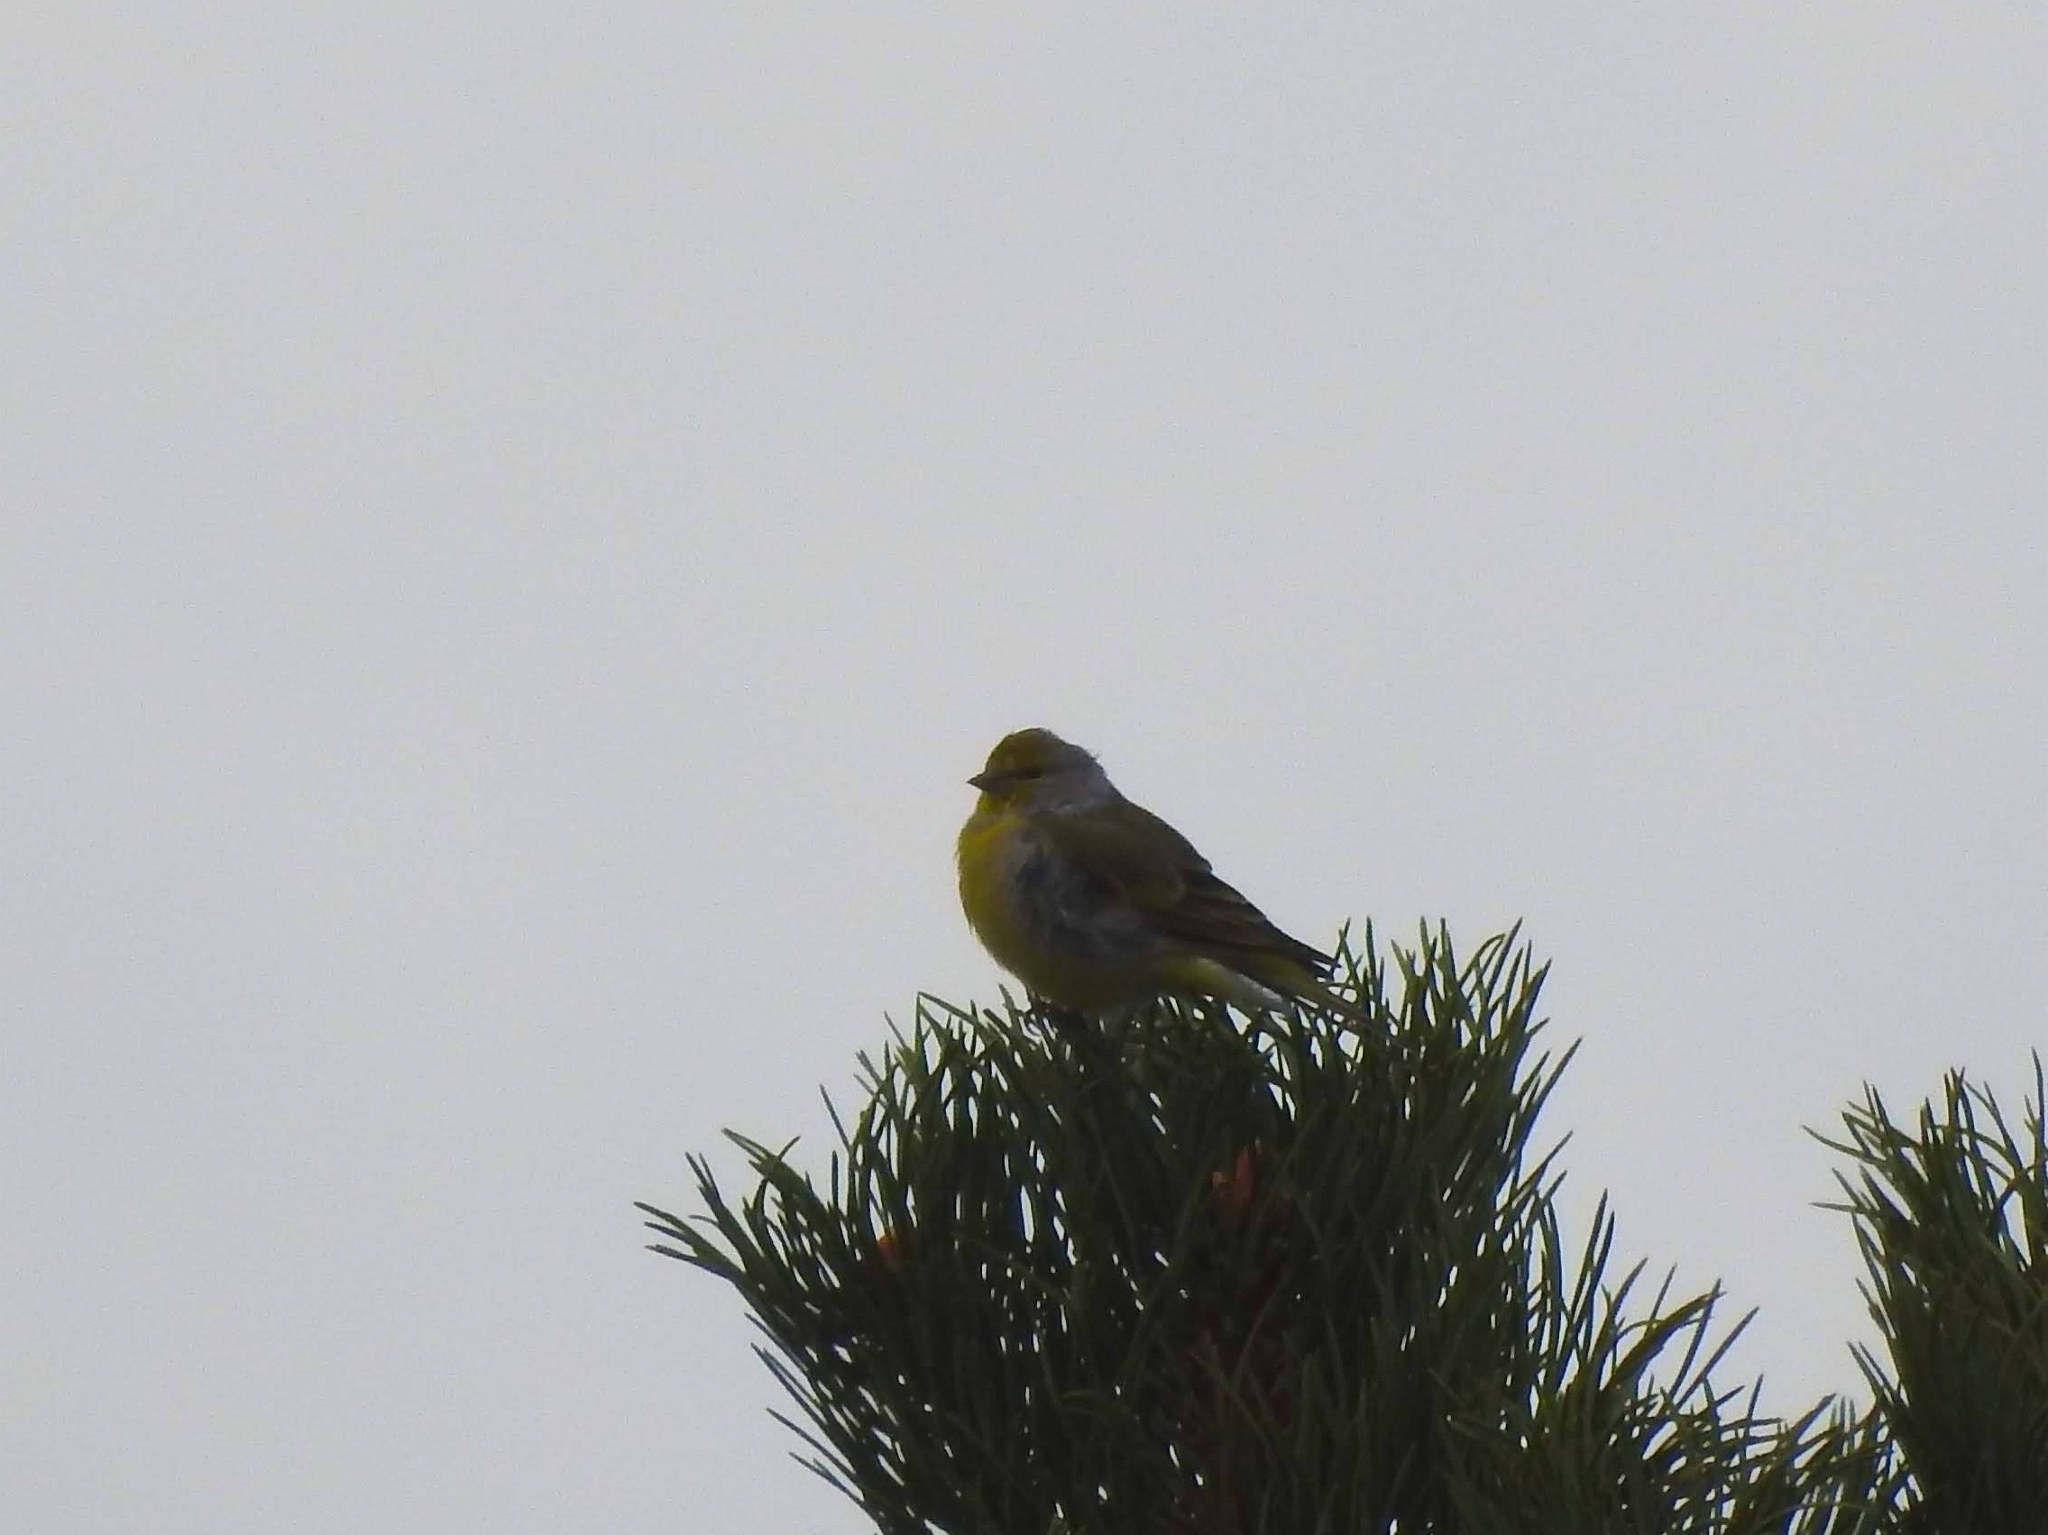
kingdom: Animalia
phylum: Chordata
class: Aves
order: Passeriformes
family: Fringillidae
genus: Carduelis
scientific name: Carduelis citrinella
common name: Citril finch
